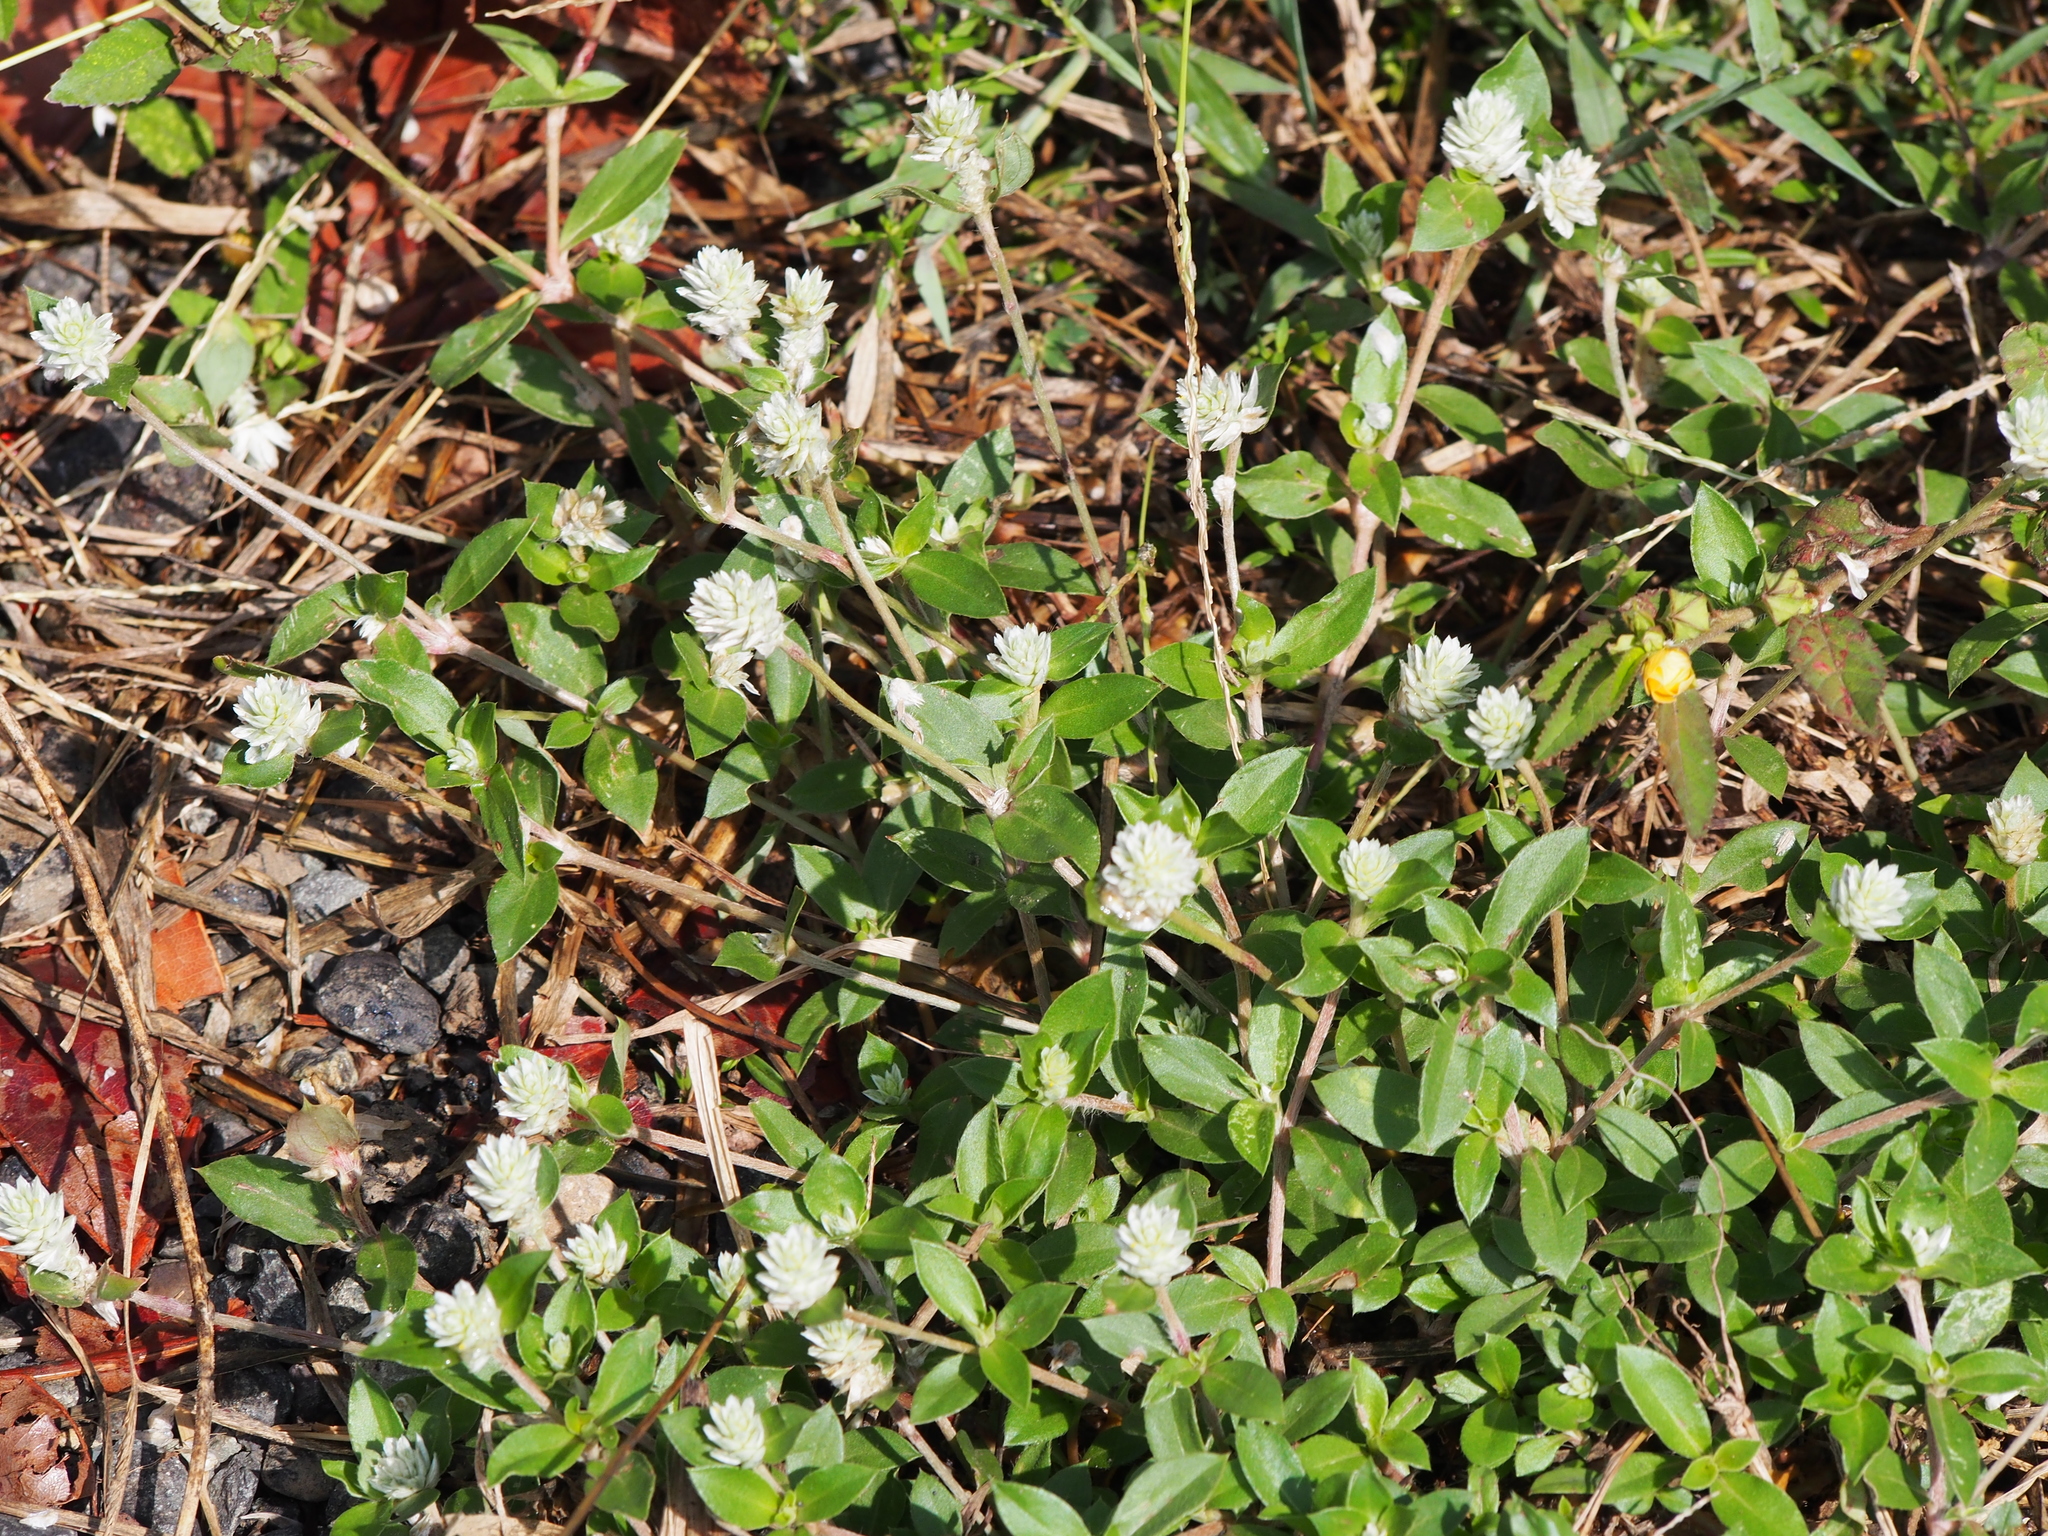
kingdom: Plantae
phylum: Tracheophyta
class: Magnoliopsida
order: Caryophyllales
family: Amaranthaceae
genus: Gomphrena
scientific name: Gomphrena serrata
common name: Arrasa con todo
